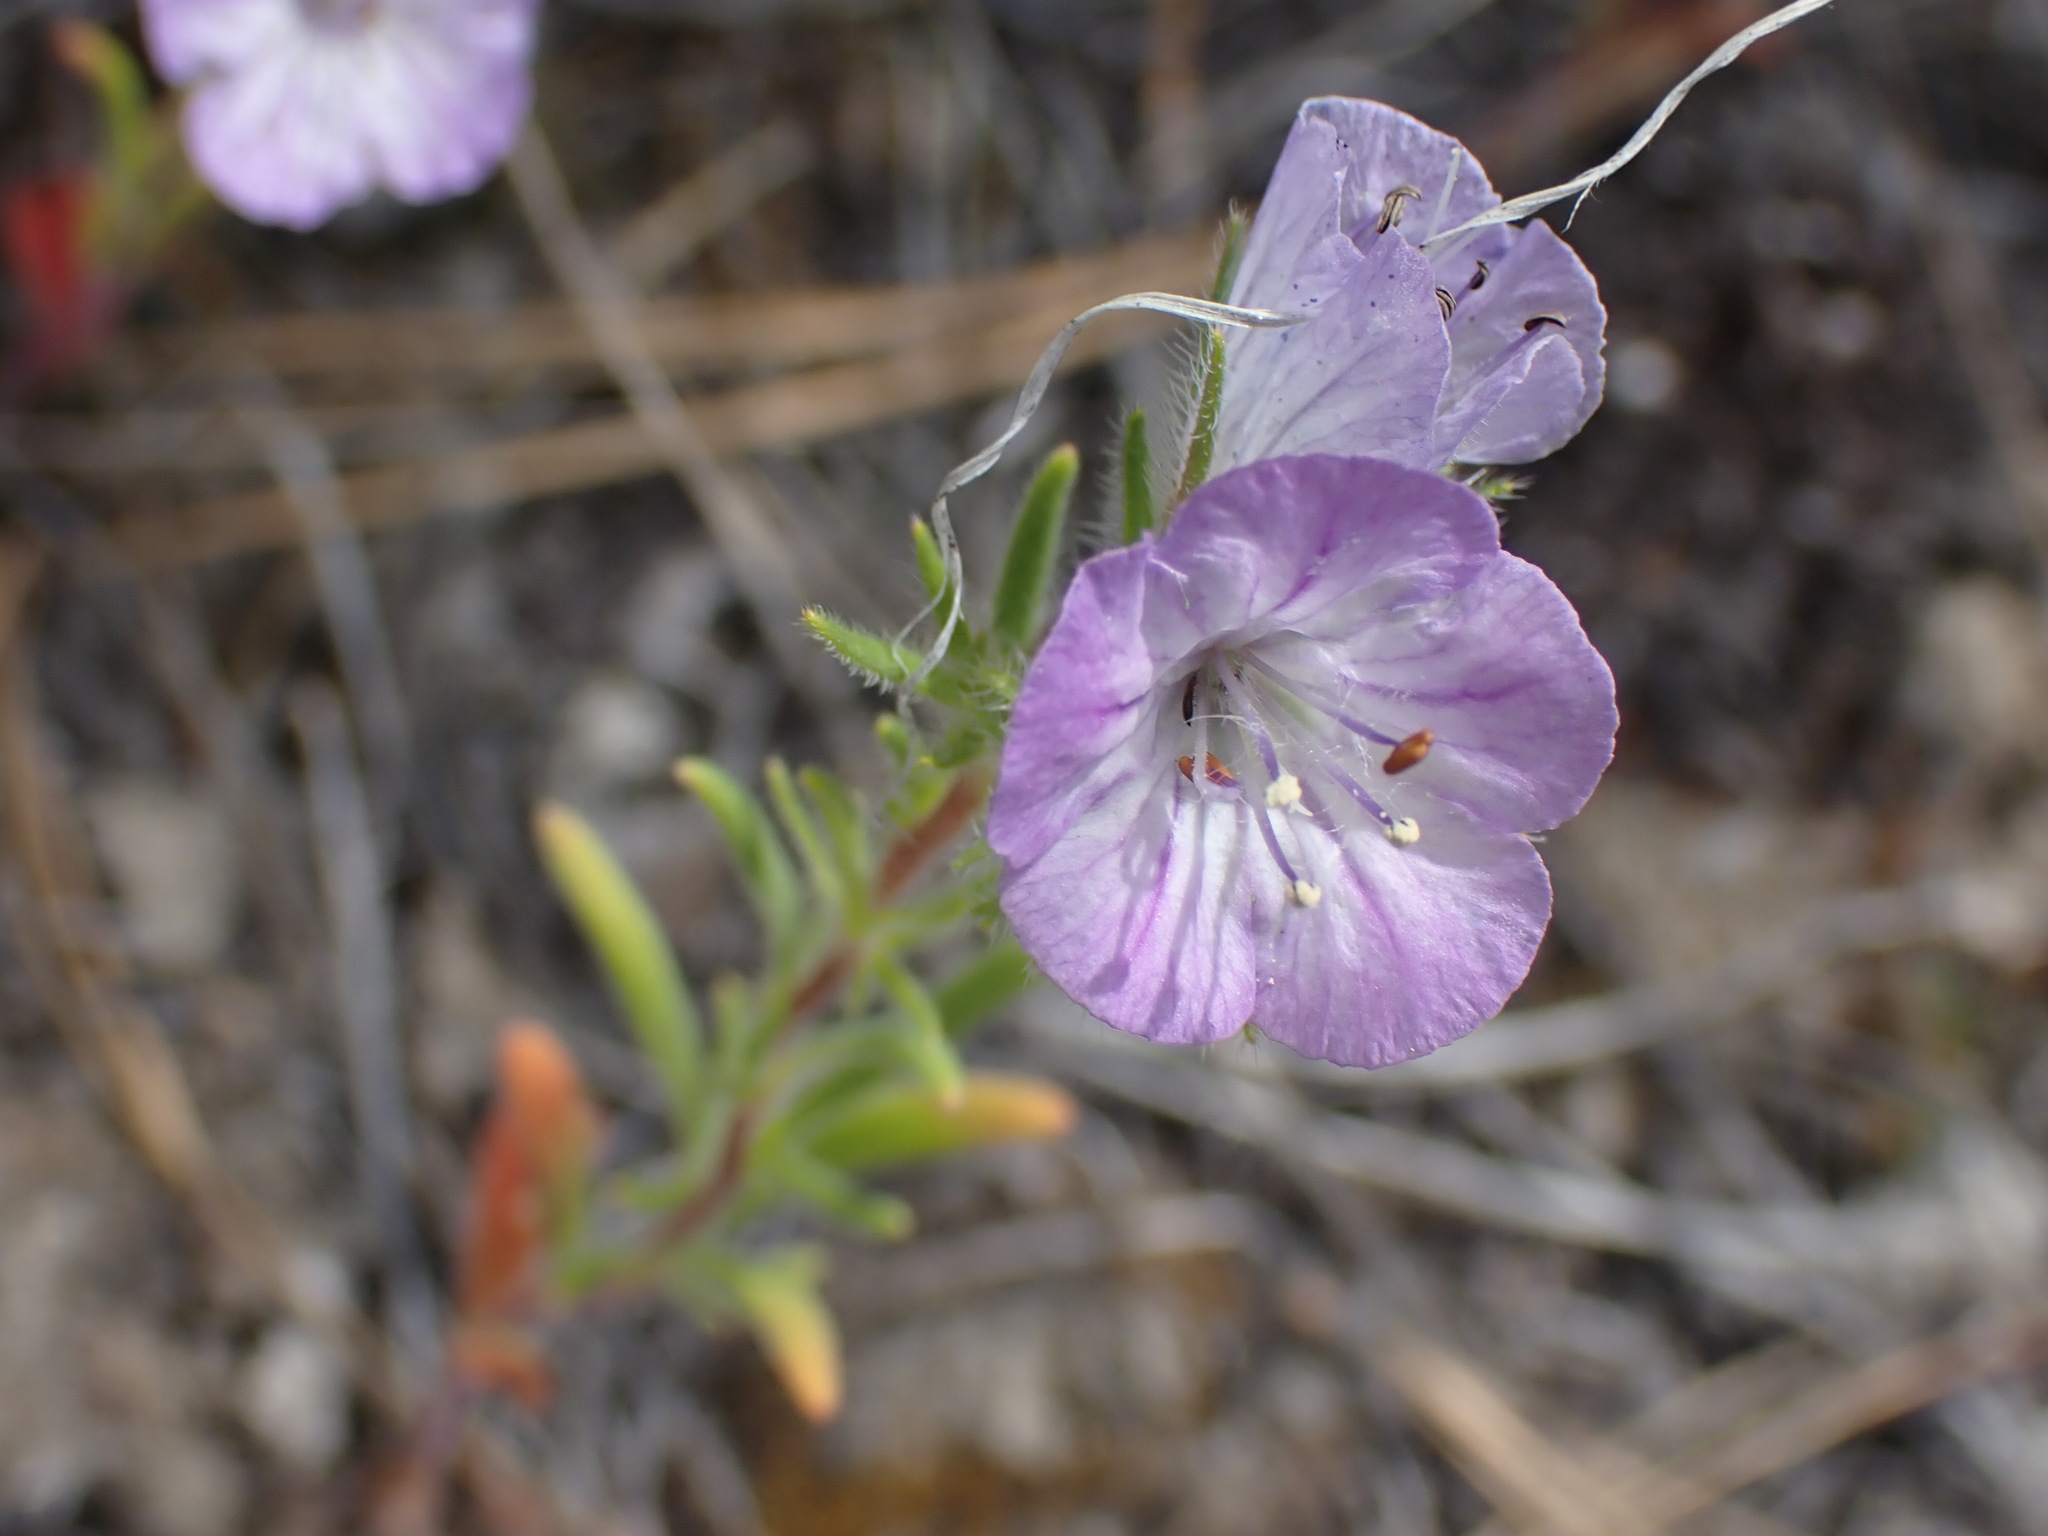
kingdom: Plantae
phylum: Tracheophyta
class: Magnoliopsida
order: Boraginales
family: Hydrophyllaceae
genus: Phacelia
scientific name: Phacelia linearis
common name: Linear-leaved phacelia
